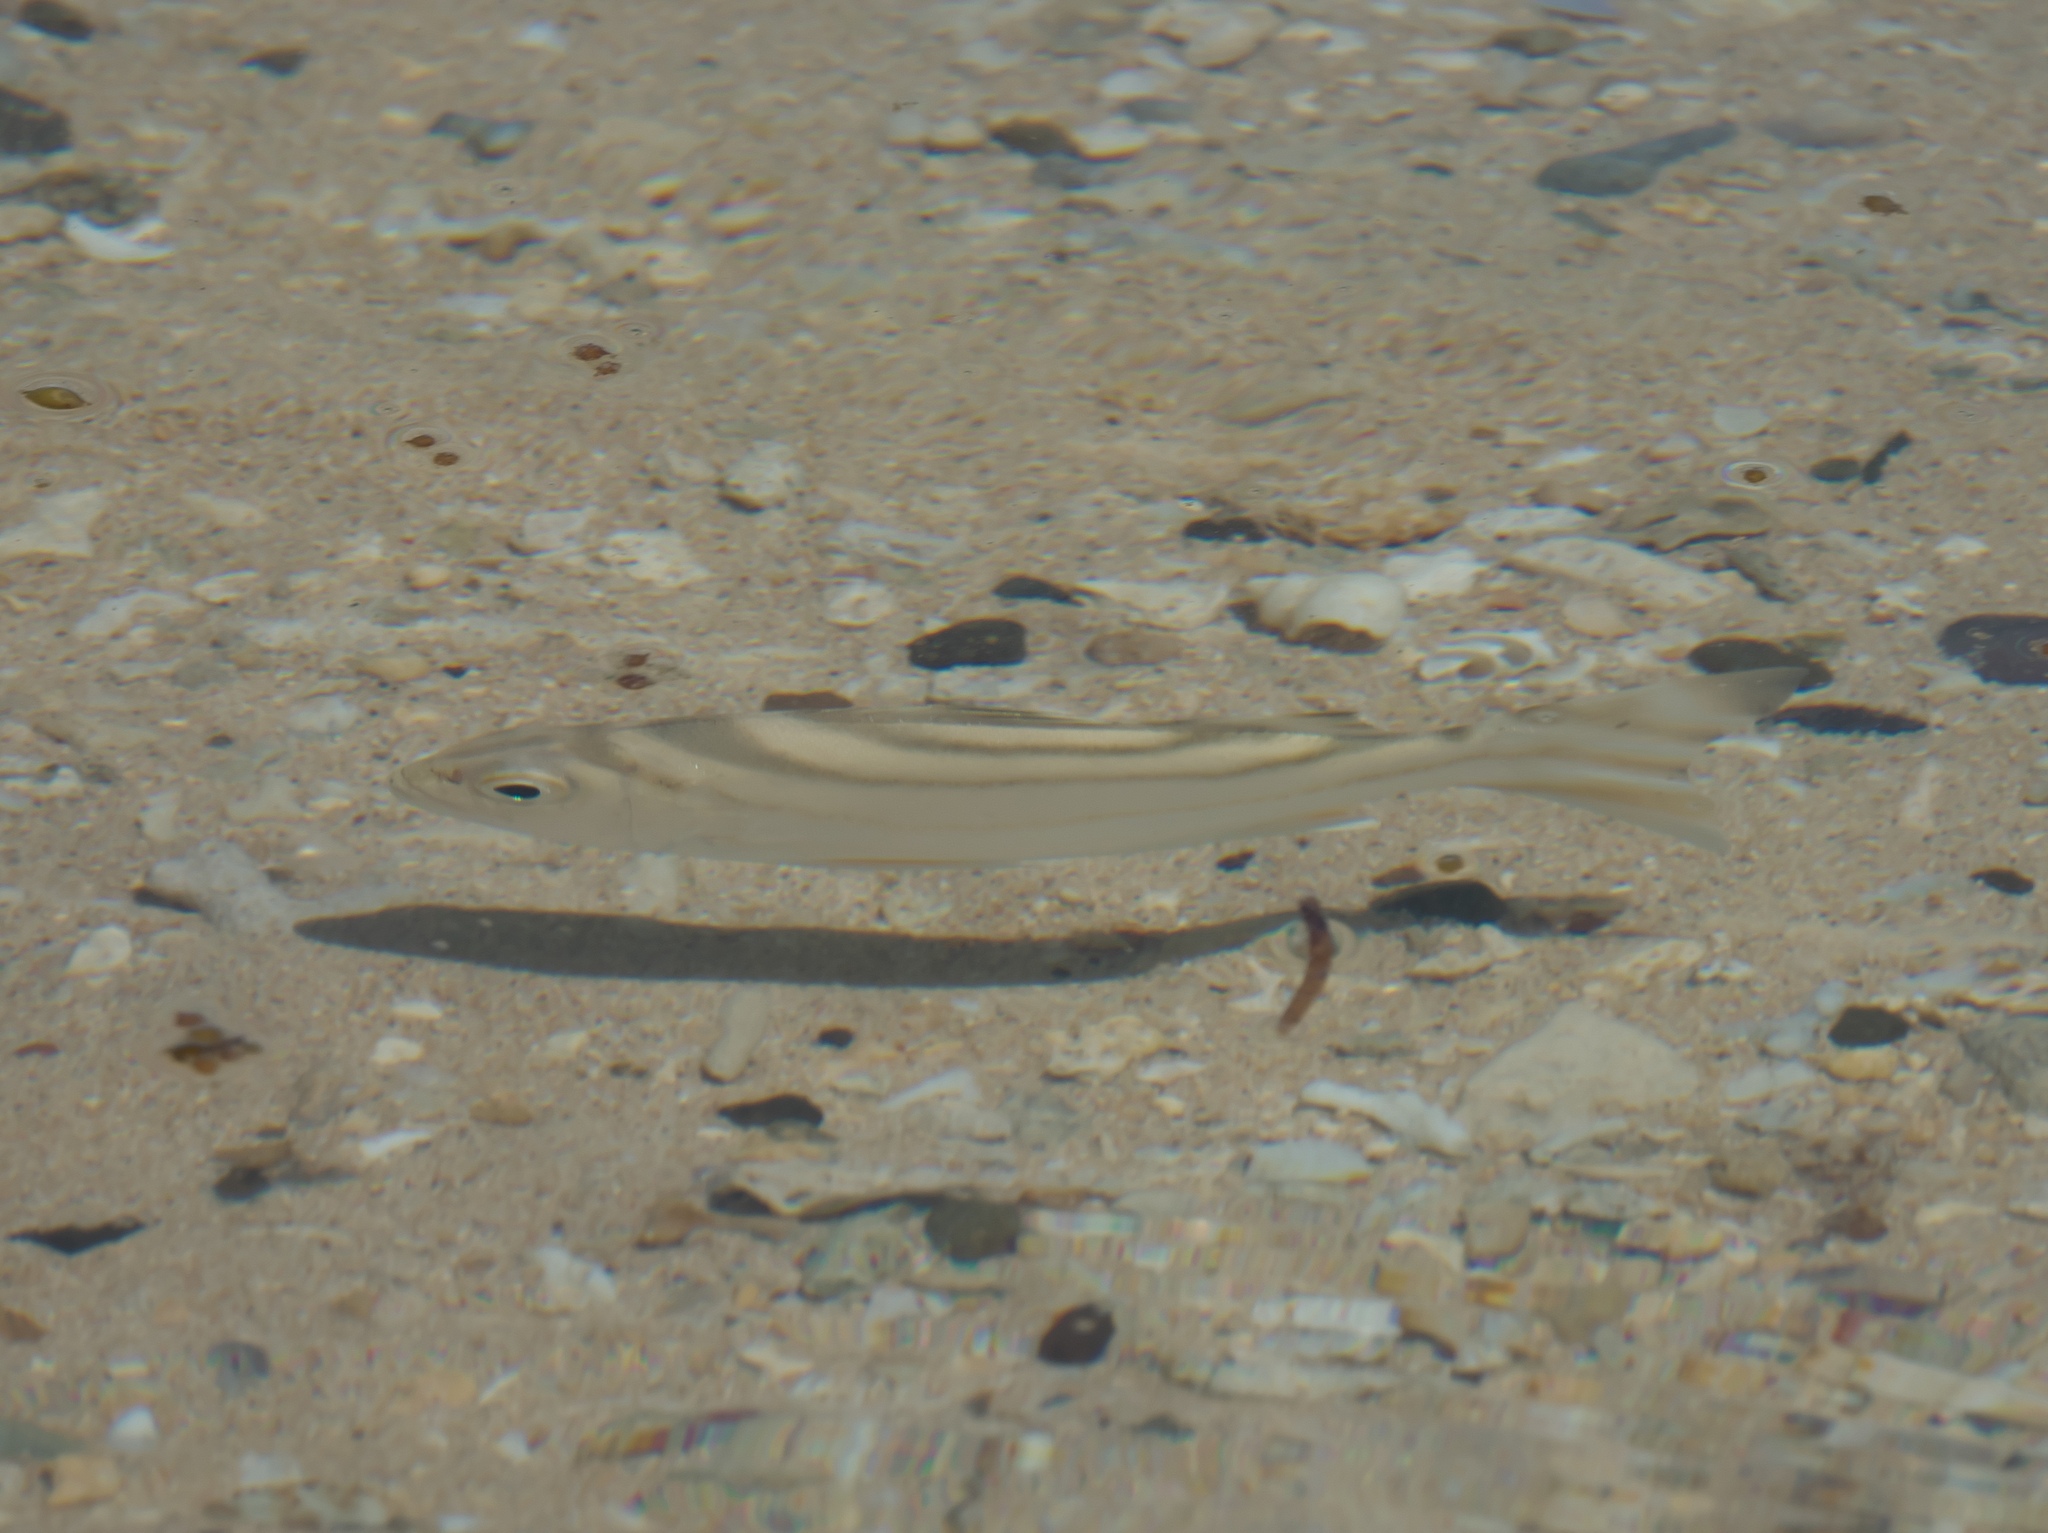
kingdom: Animalia
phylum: Chordata
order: Perciformes
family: Terapontidae
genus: Terapon
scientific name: Terapon jarbua
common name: Jarbua terapon
